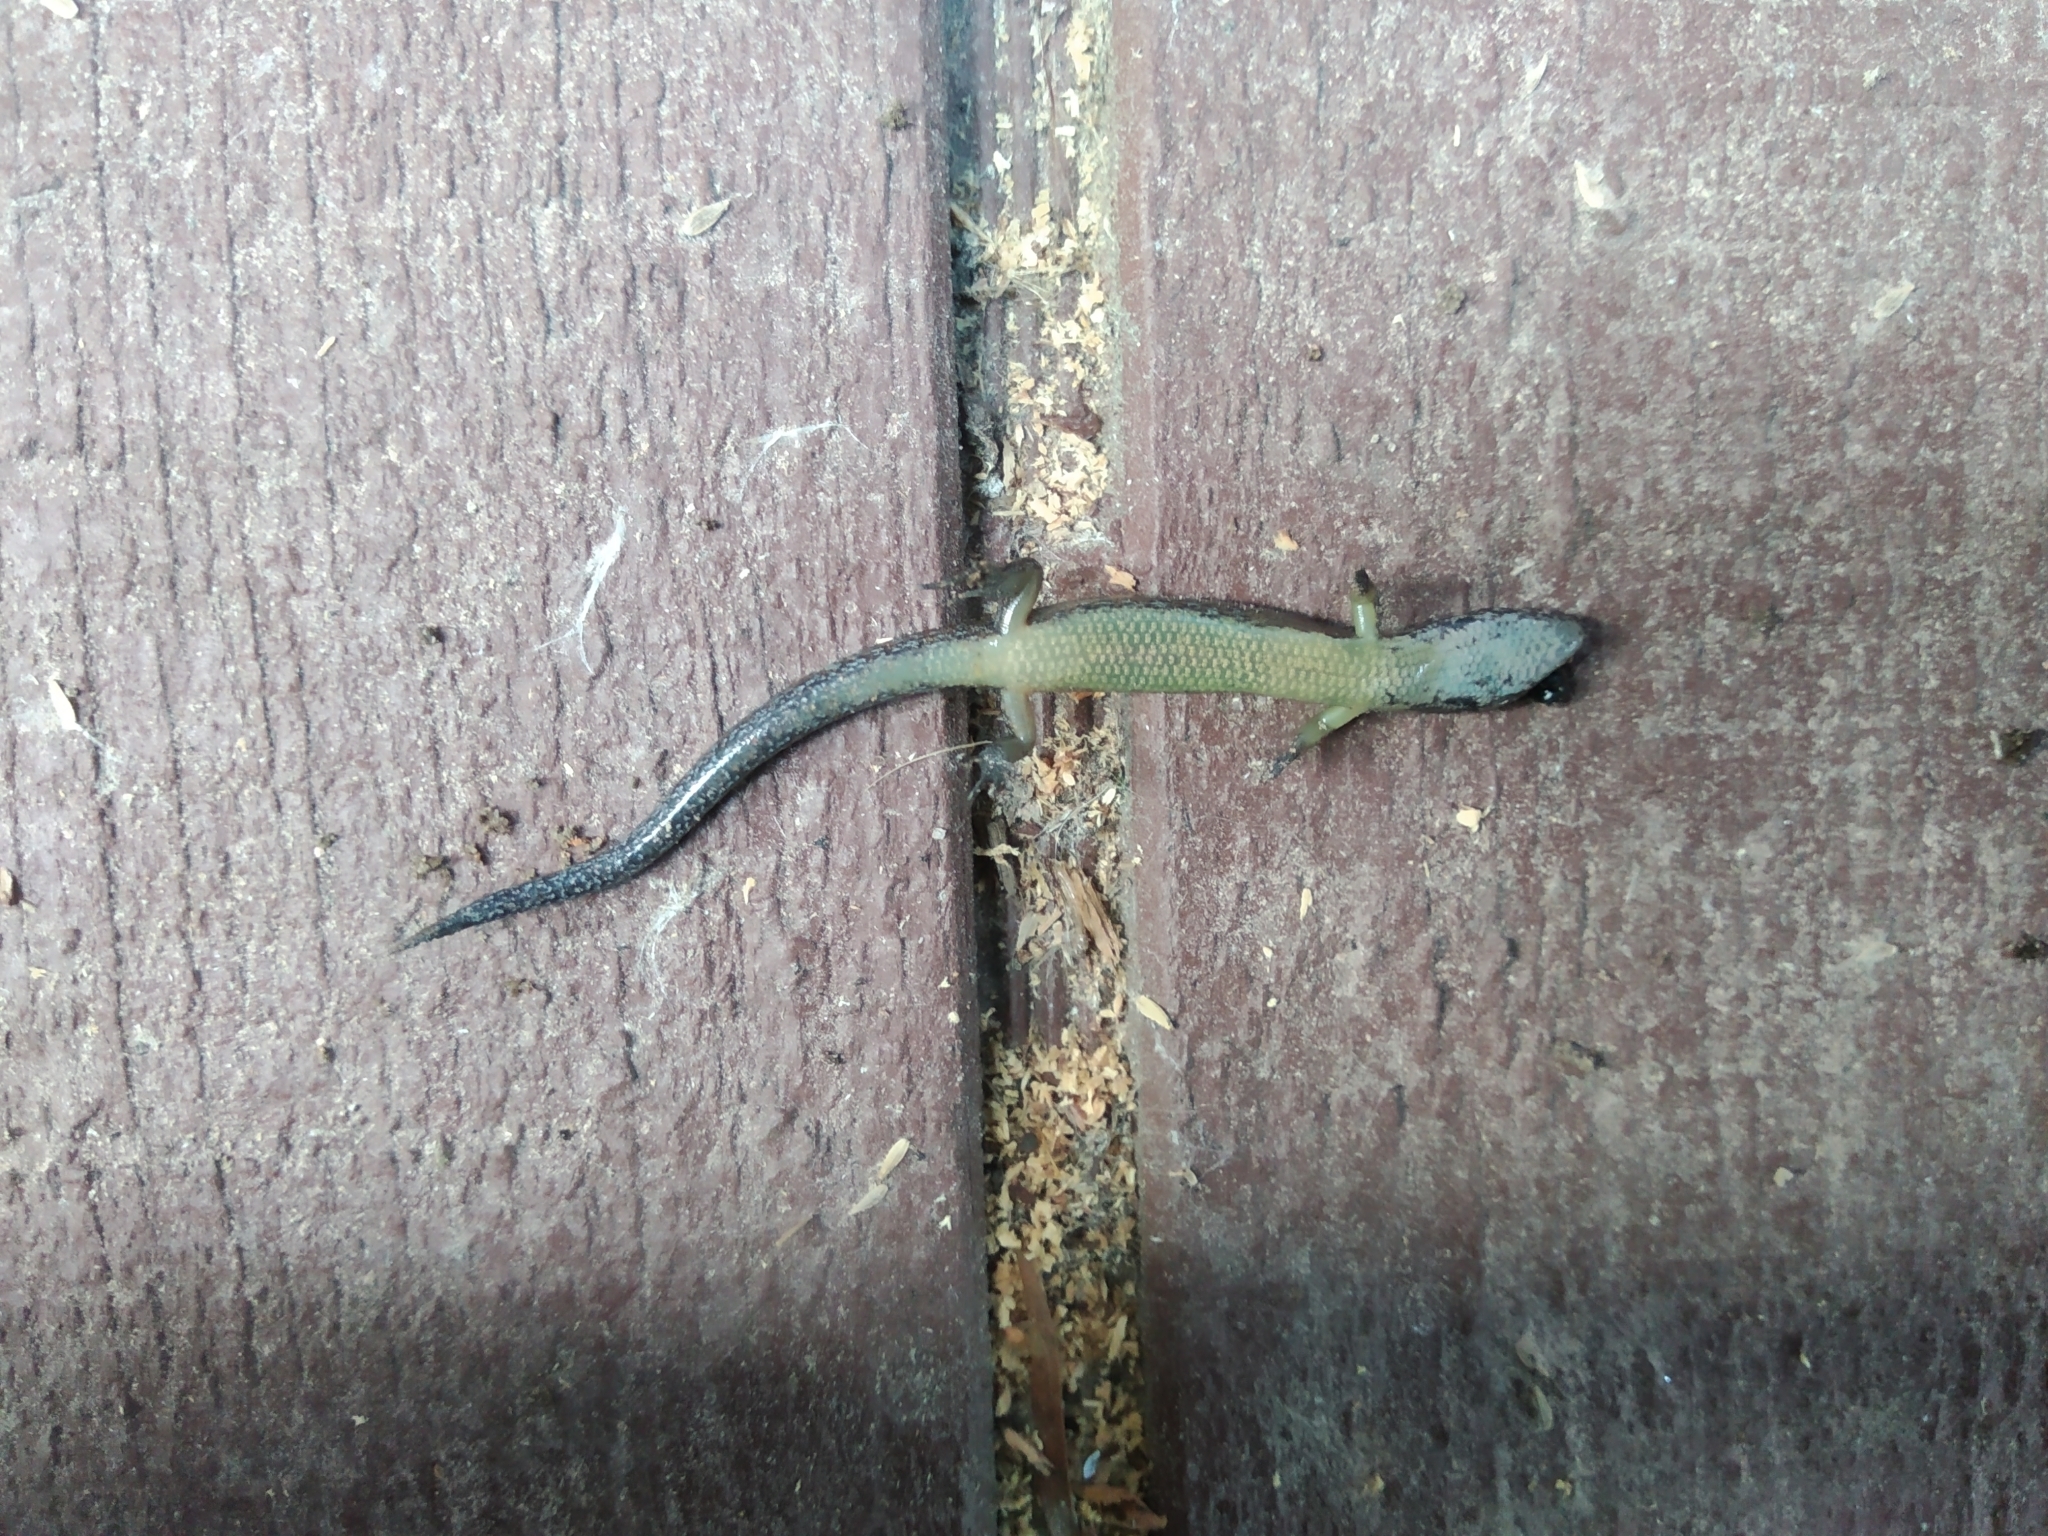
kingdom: Animalia
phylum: Chordata
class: Squamata
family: Scincidae
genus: Oligosoma
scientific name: Oligosoma aeneum
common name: Copper skink
